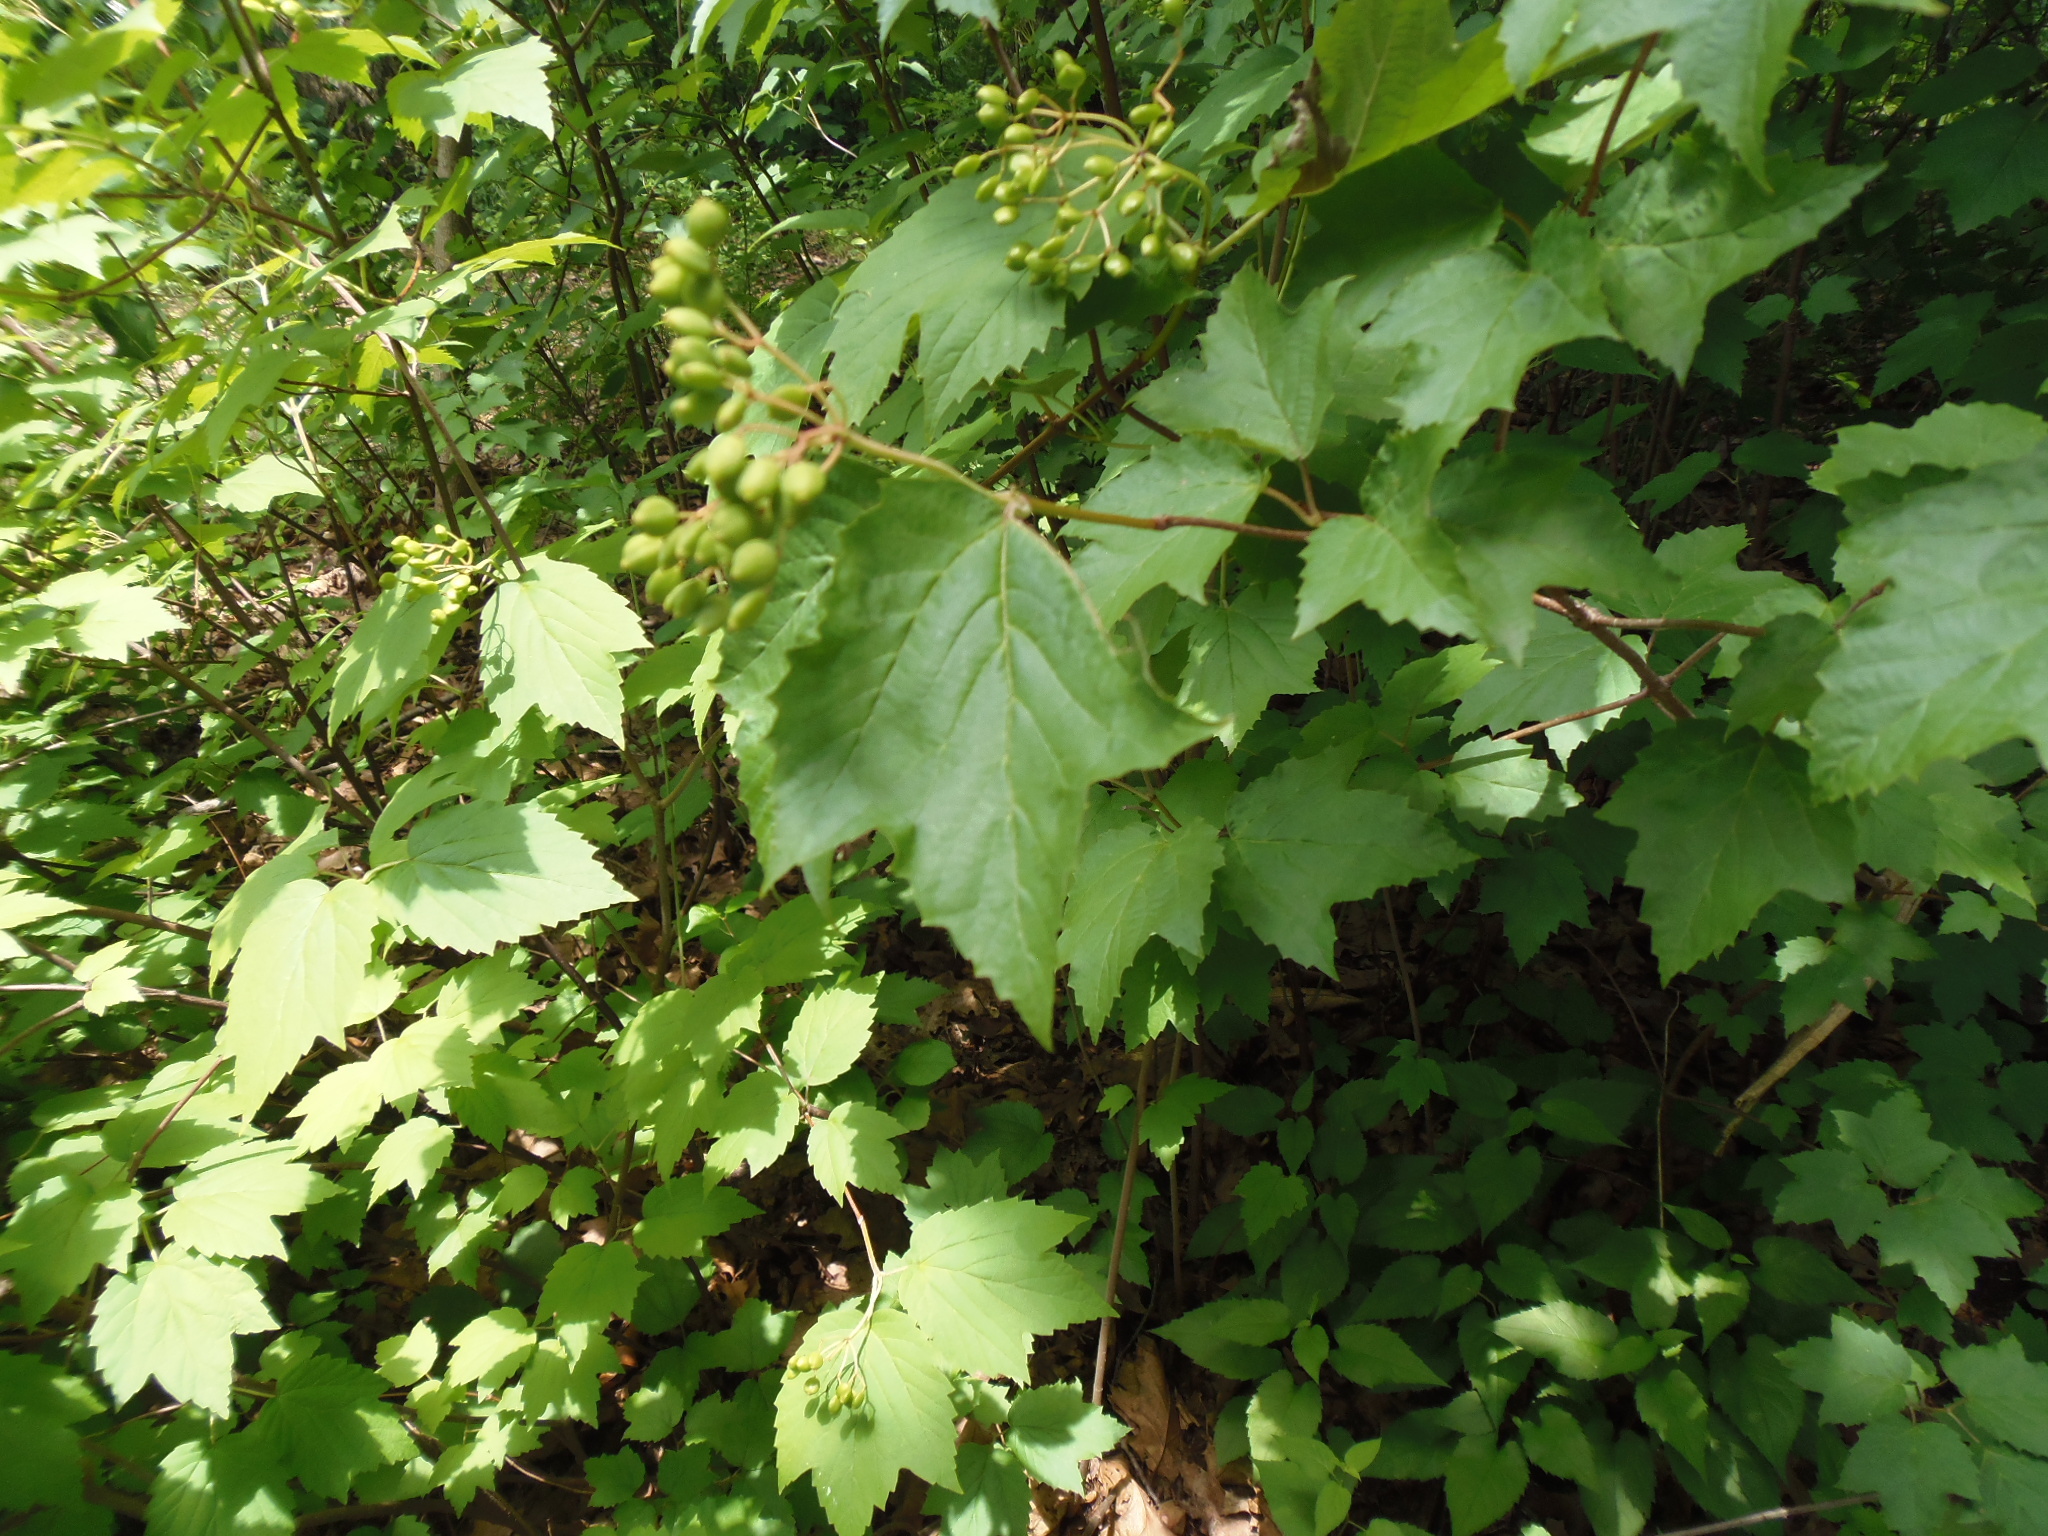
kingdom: Plantae
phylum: Tracheophyta
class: Magnoliopsida
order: Dipsacales
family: Viburnaceae
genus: Viburnum
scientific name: Viburnum acerifolium
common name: Dockmackie
